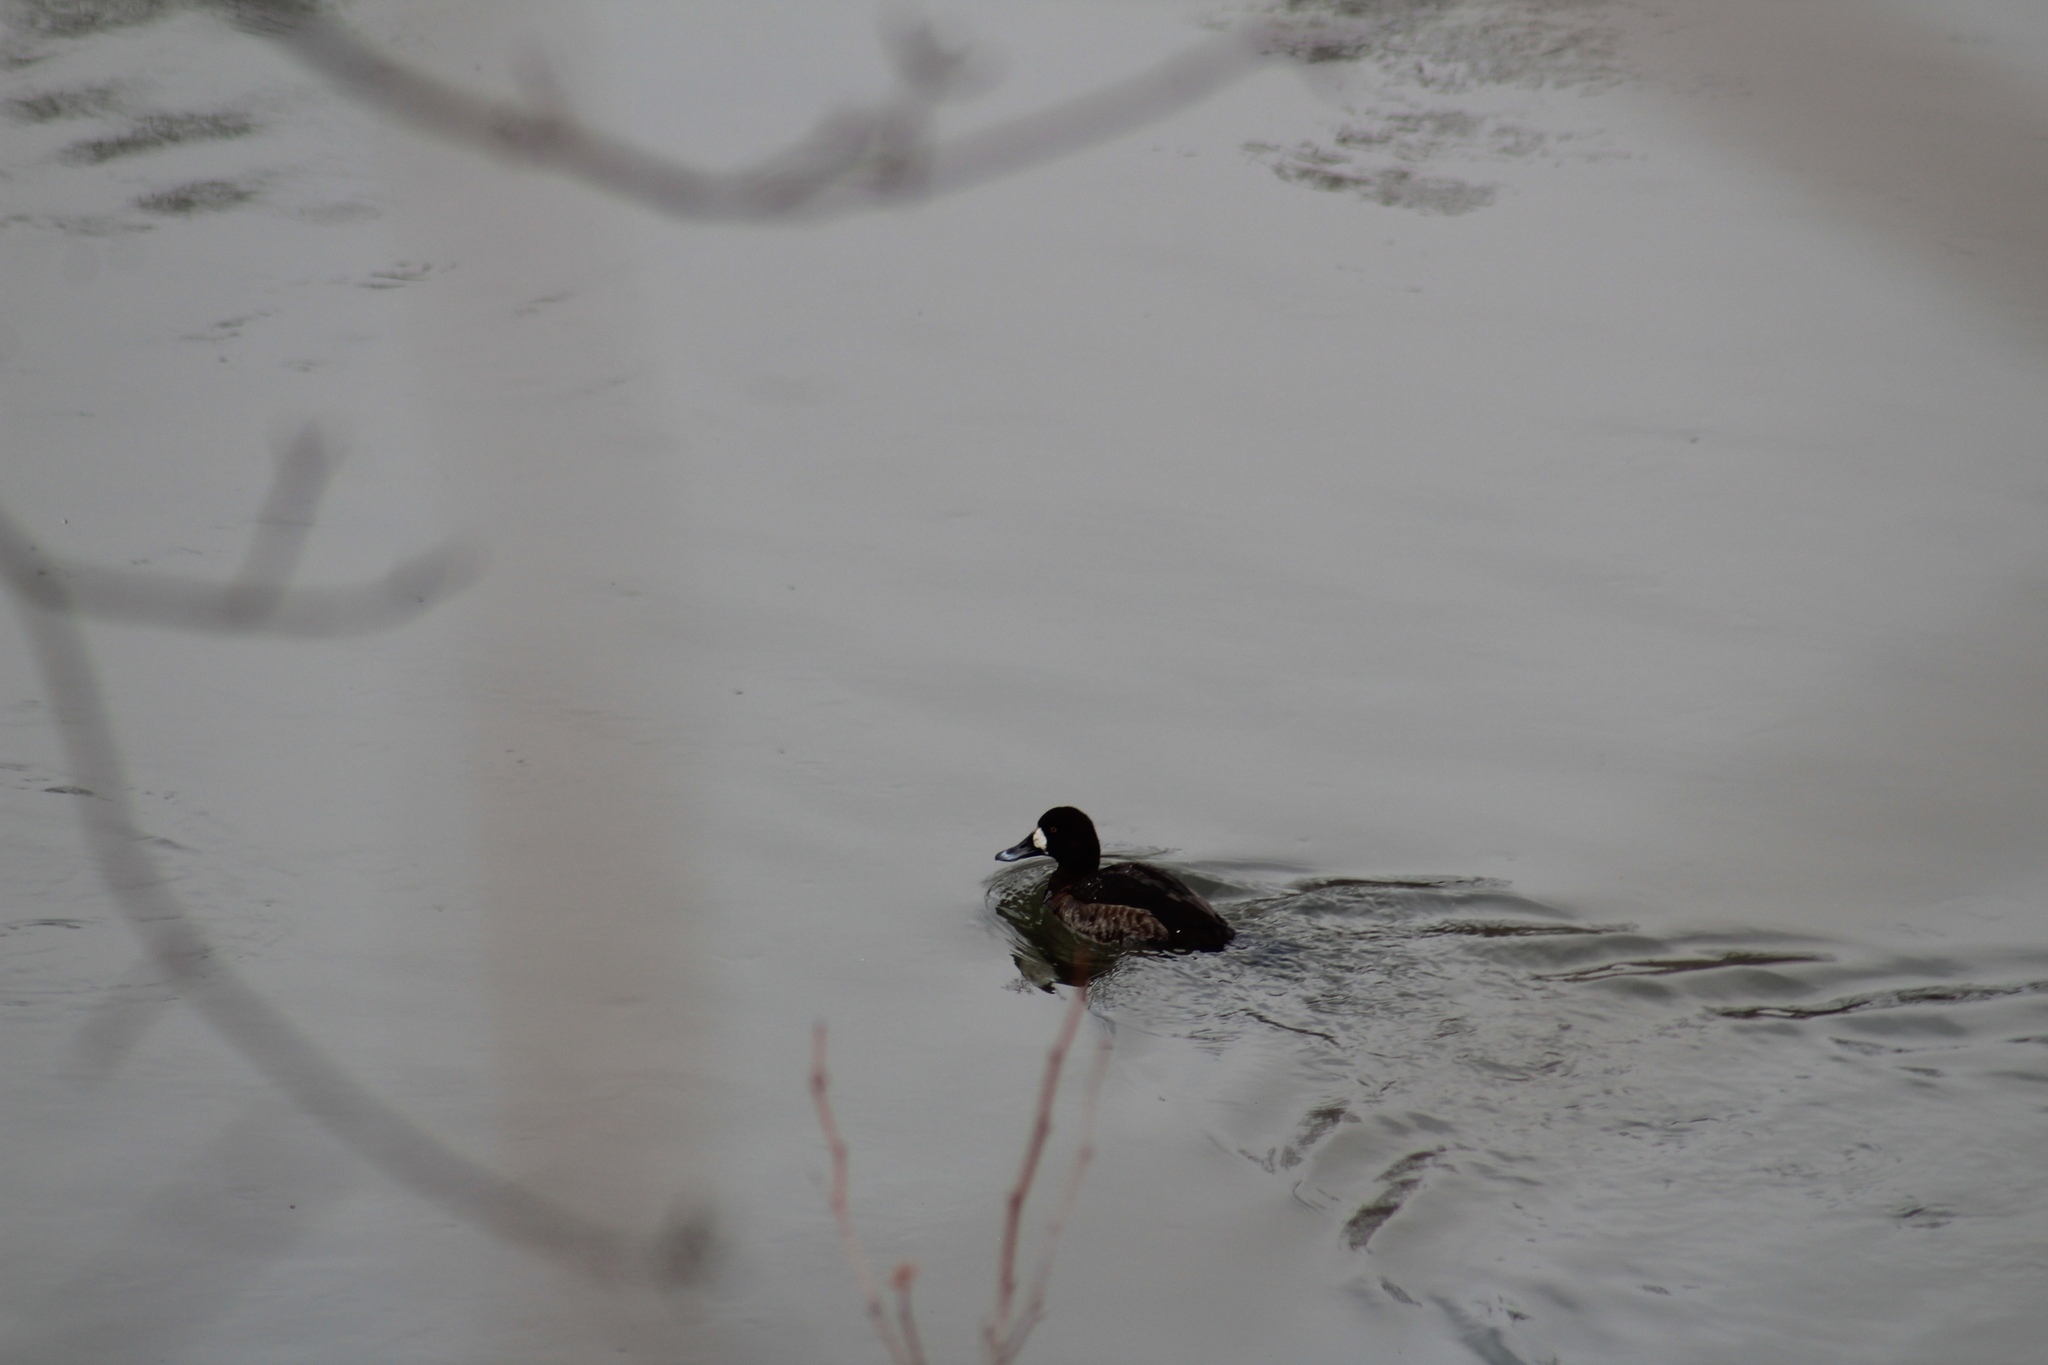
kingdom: Animalia
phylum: Chordata
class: Aves
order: Anseriformes
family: Anatidae
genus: Aythya
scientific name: Aythya marila
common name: Greater scaup
